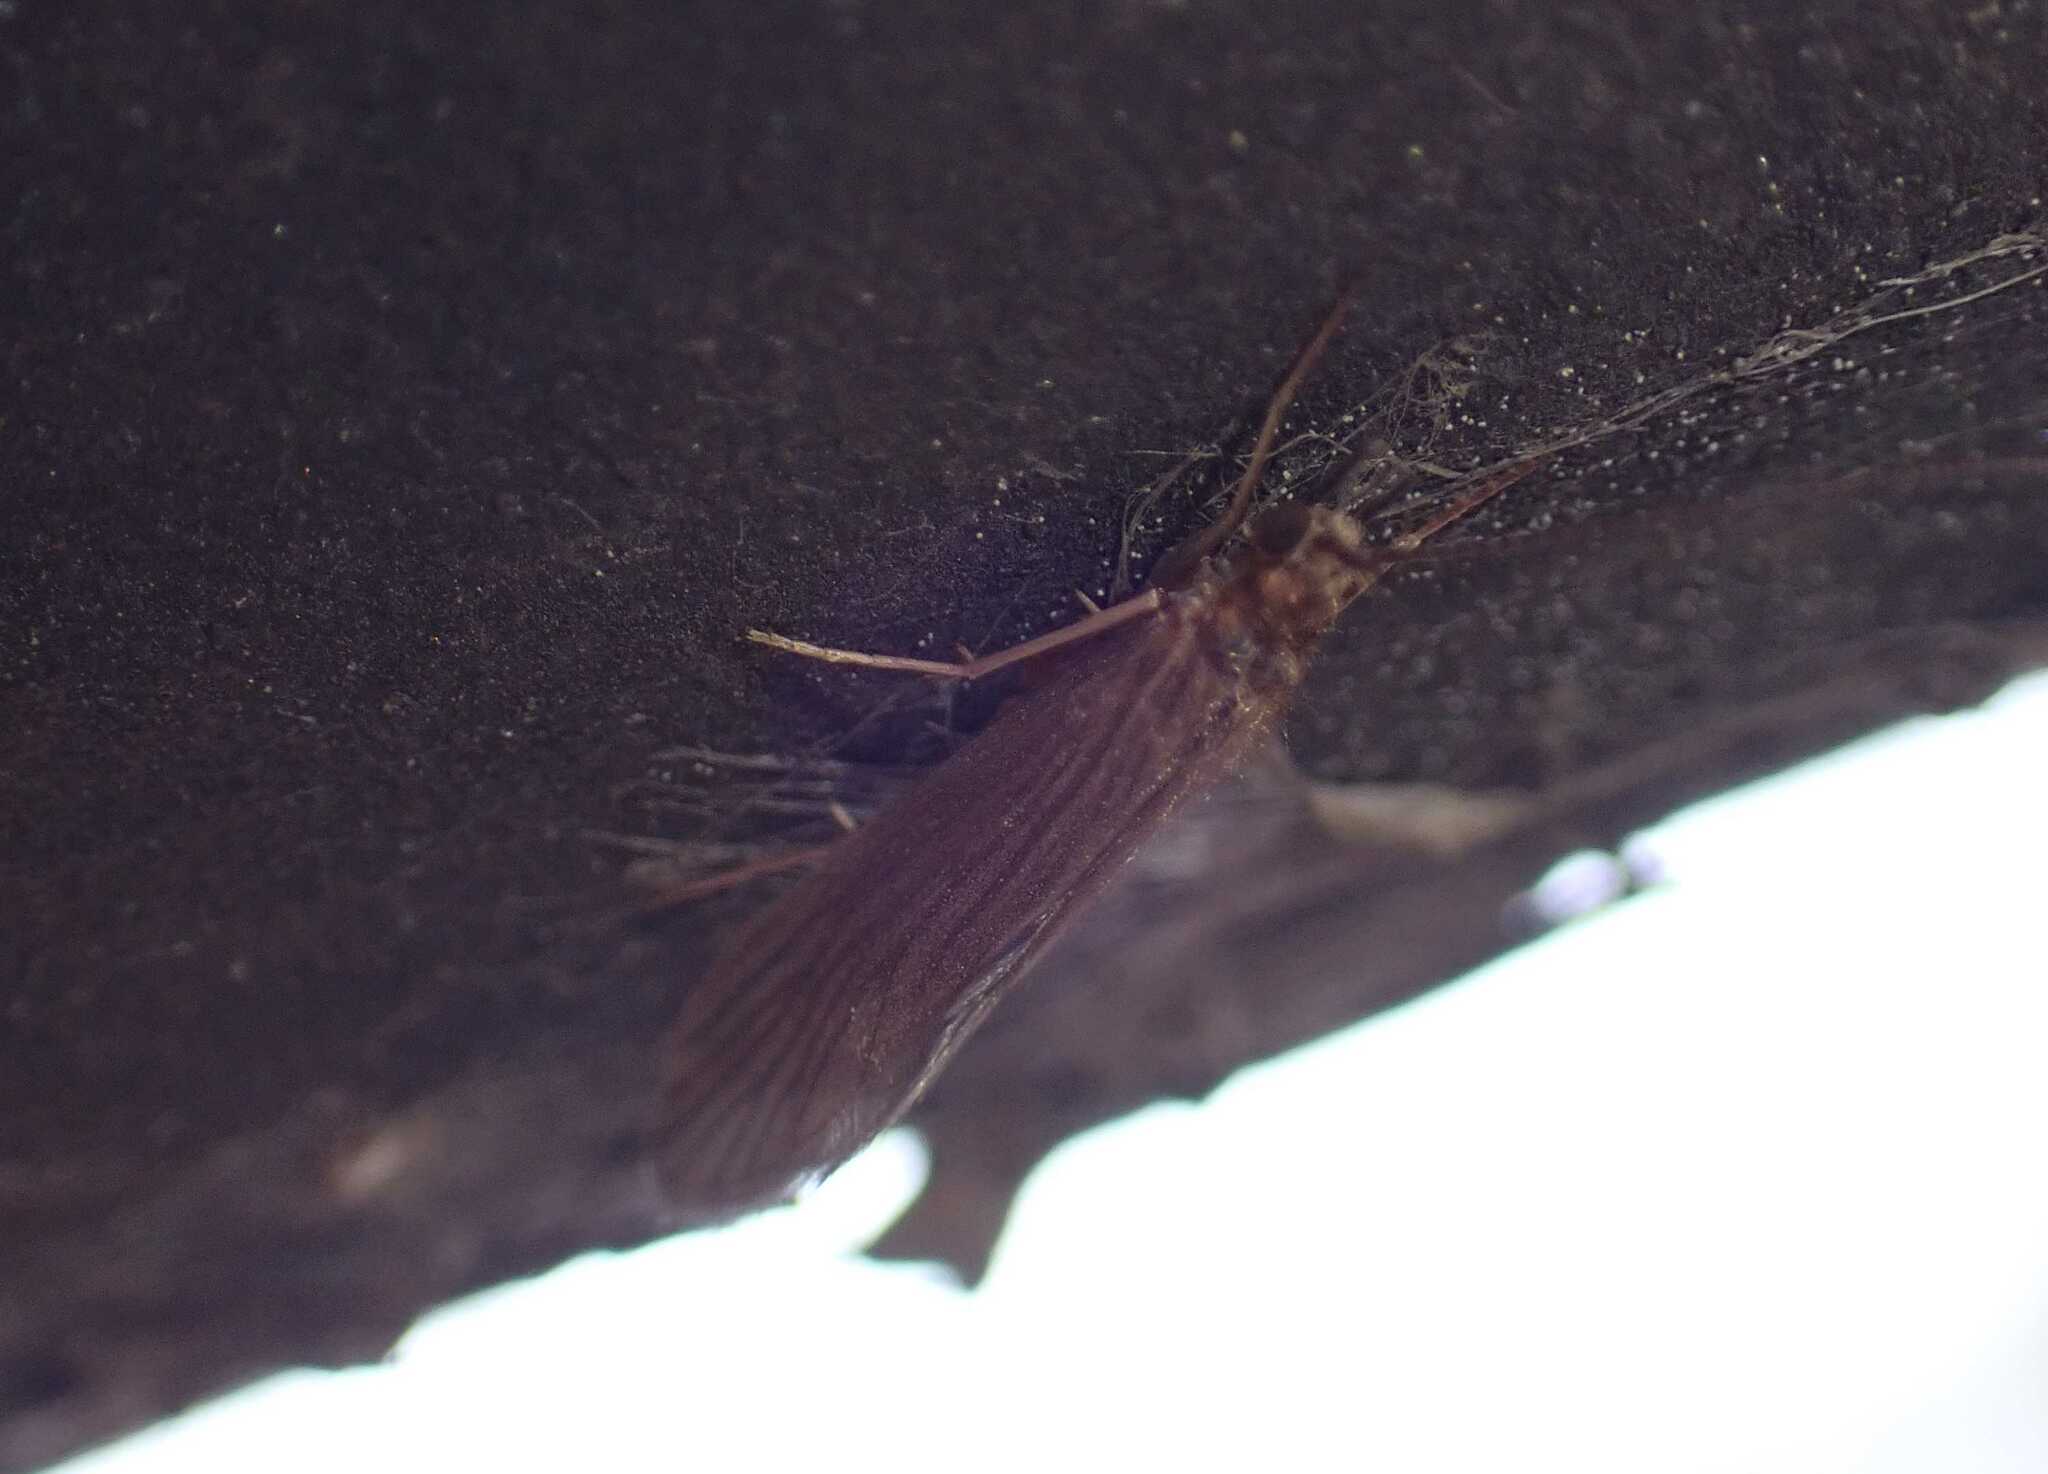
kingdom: Animalia
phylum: Arthropoda
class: Insecta
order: Trichoptera
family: Psychomyiidae
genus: Tinodes
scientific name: Tinodes waeneri
